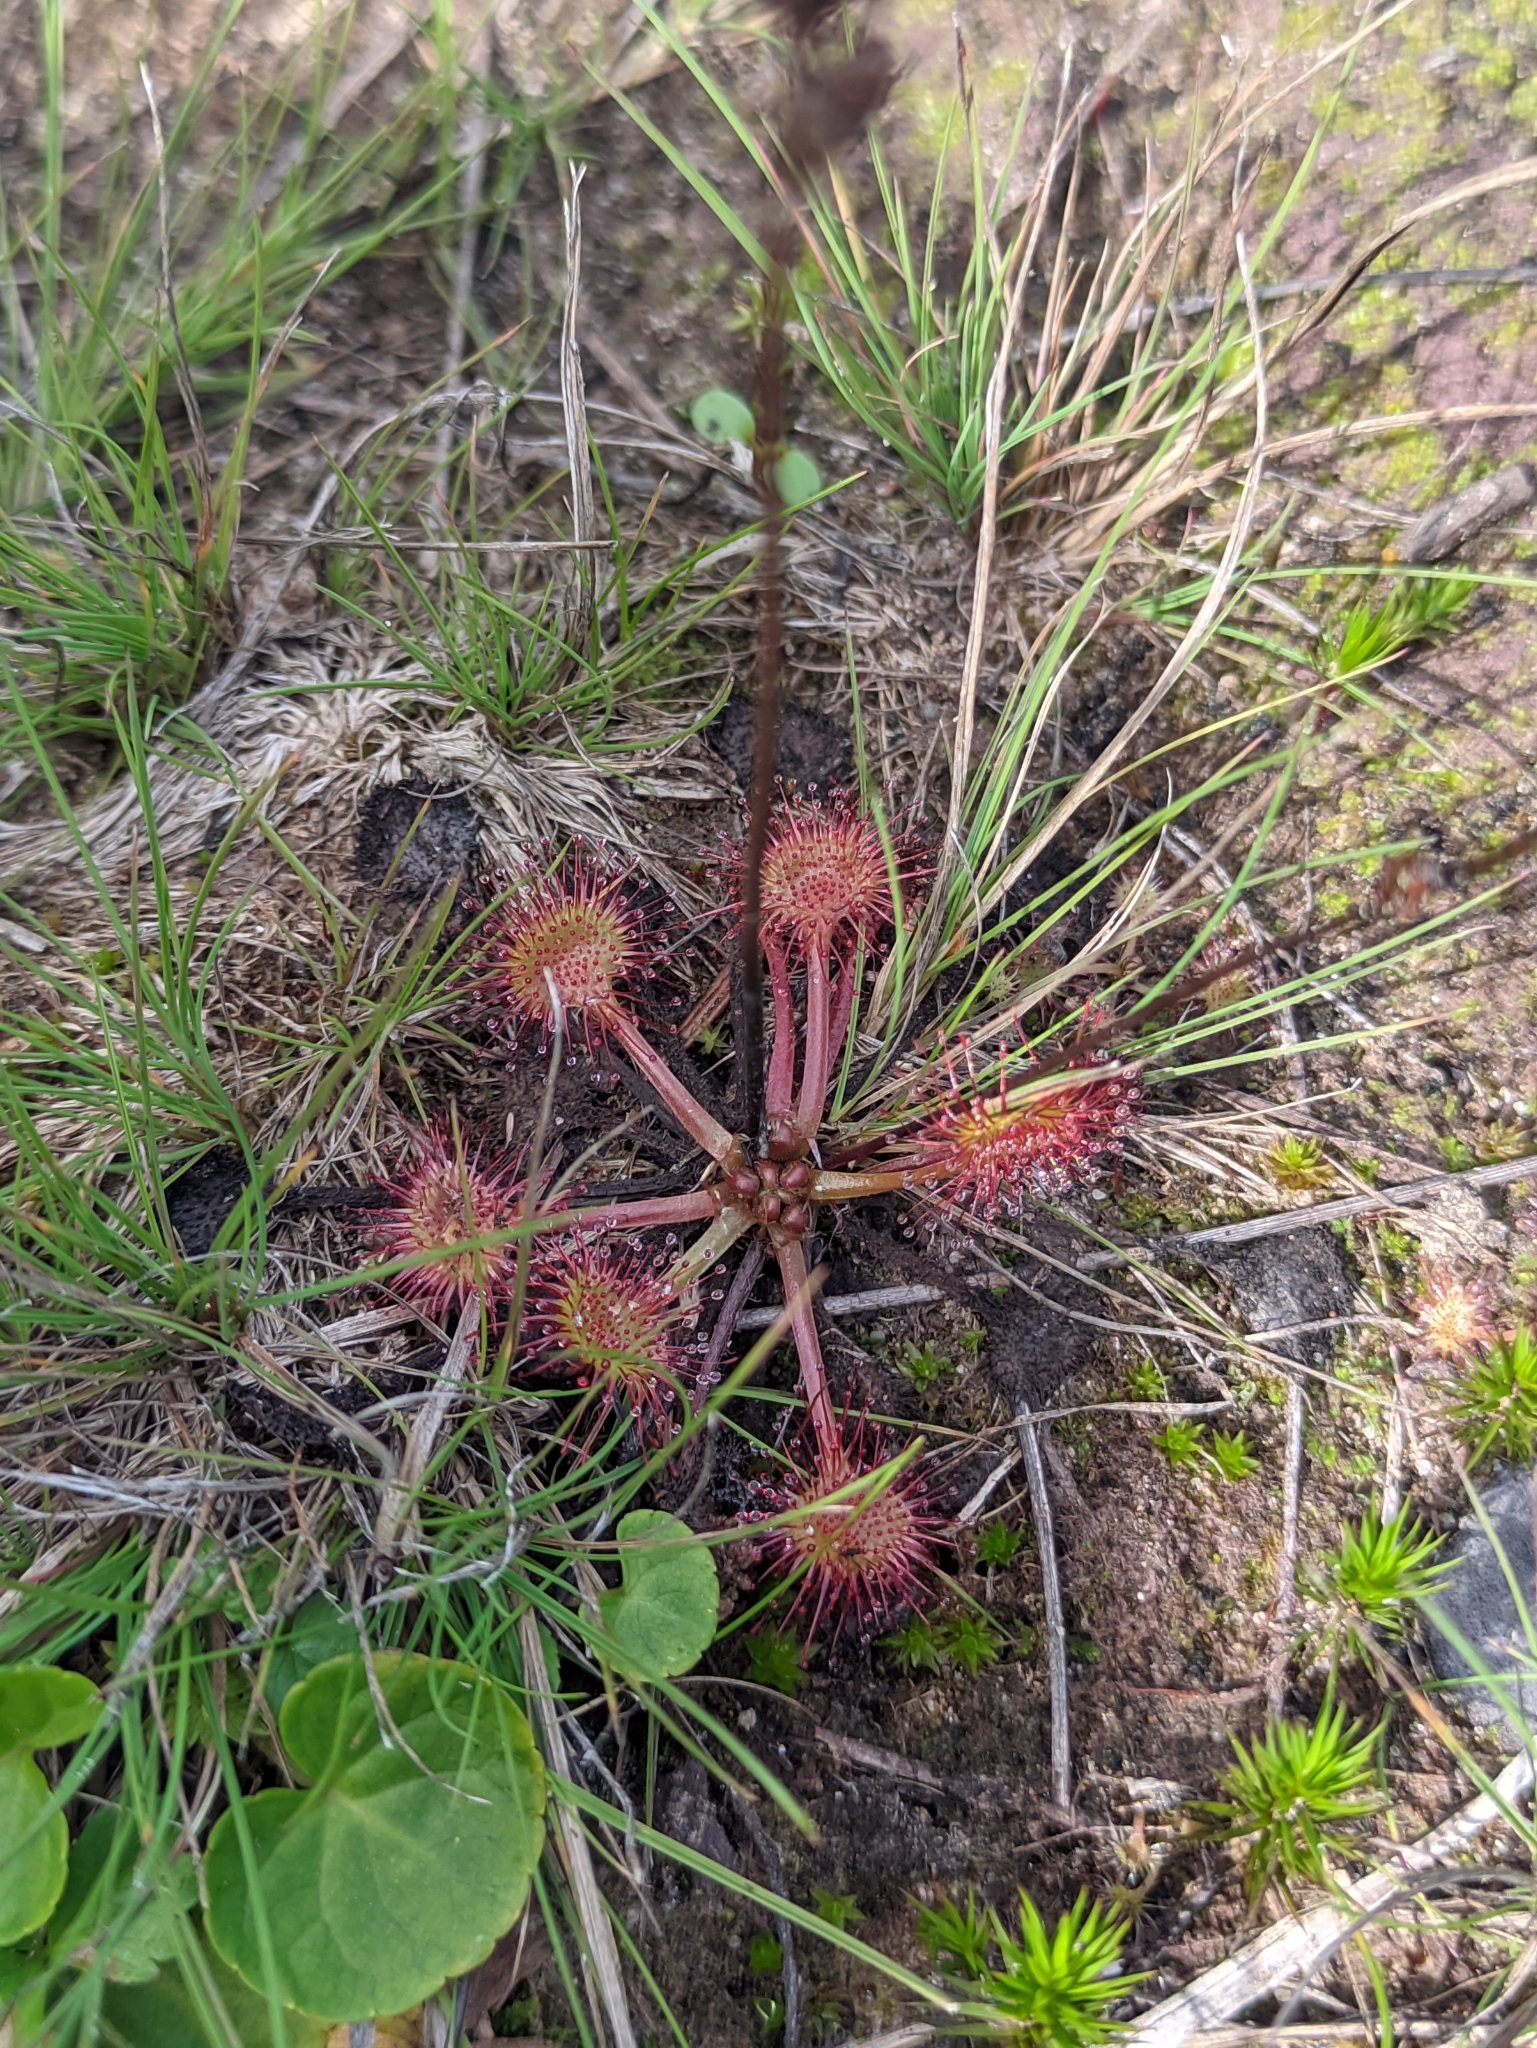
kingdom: Plantae
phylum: Tracheophyta
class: Magnoliopsida
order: Caryophyllales
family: Droseraceae
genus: Drosera
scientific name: Drosera rotundifolia
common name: Round-leaved sundew
